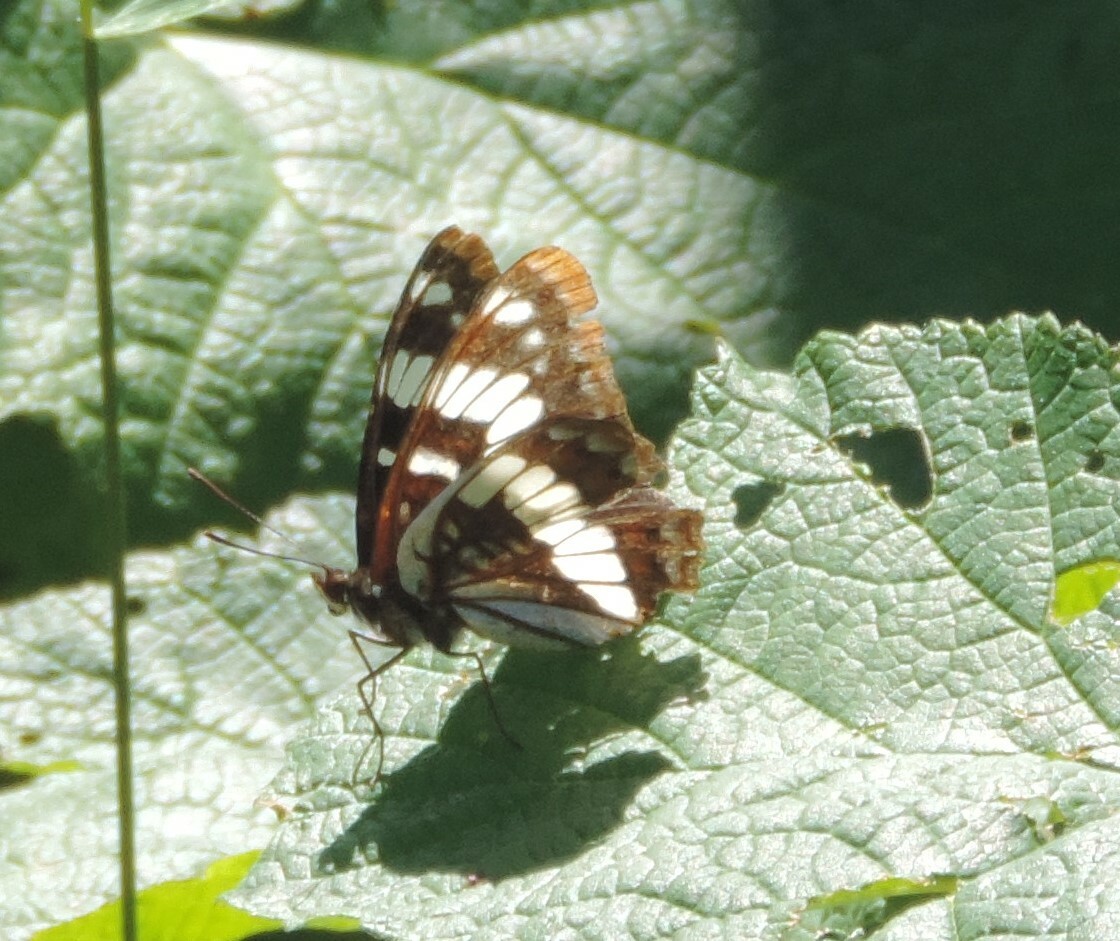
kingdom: Animalia
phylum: Arthropoda
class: Insecta
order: Lepidoptera
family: Nymphalidae
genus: Limenitis
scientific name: Limenitis lorquini
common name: Lorquin's admiral
